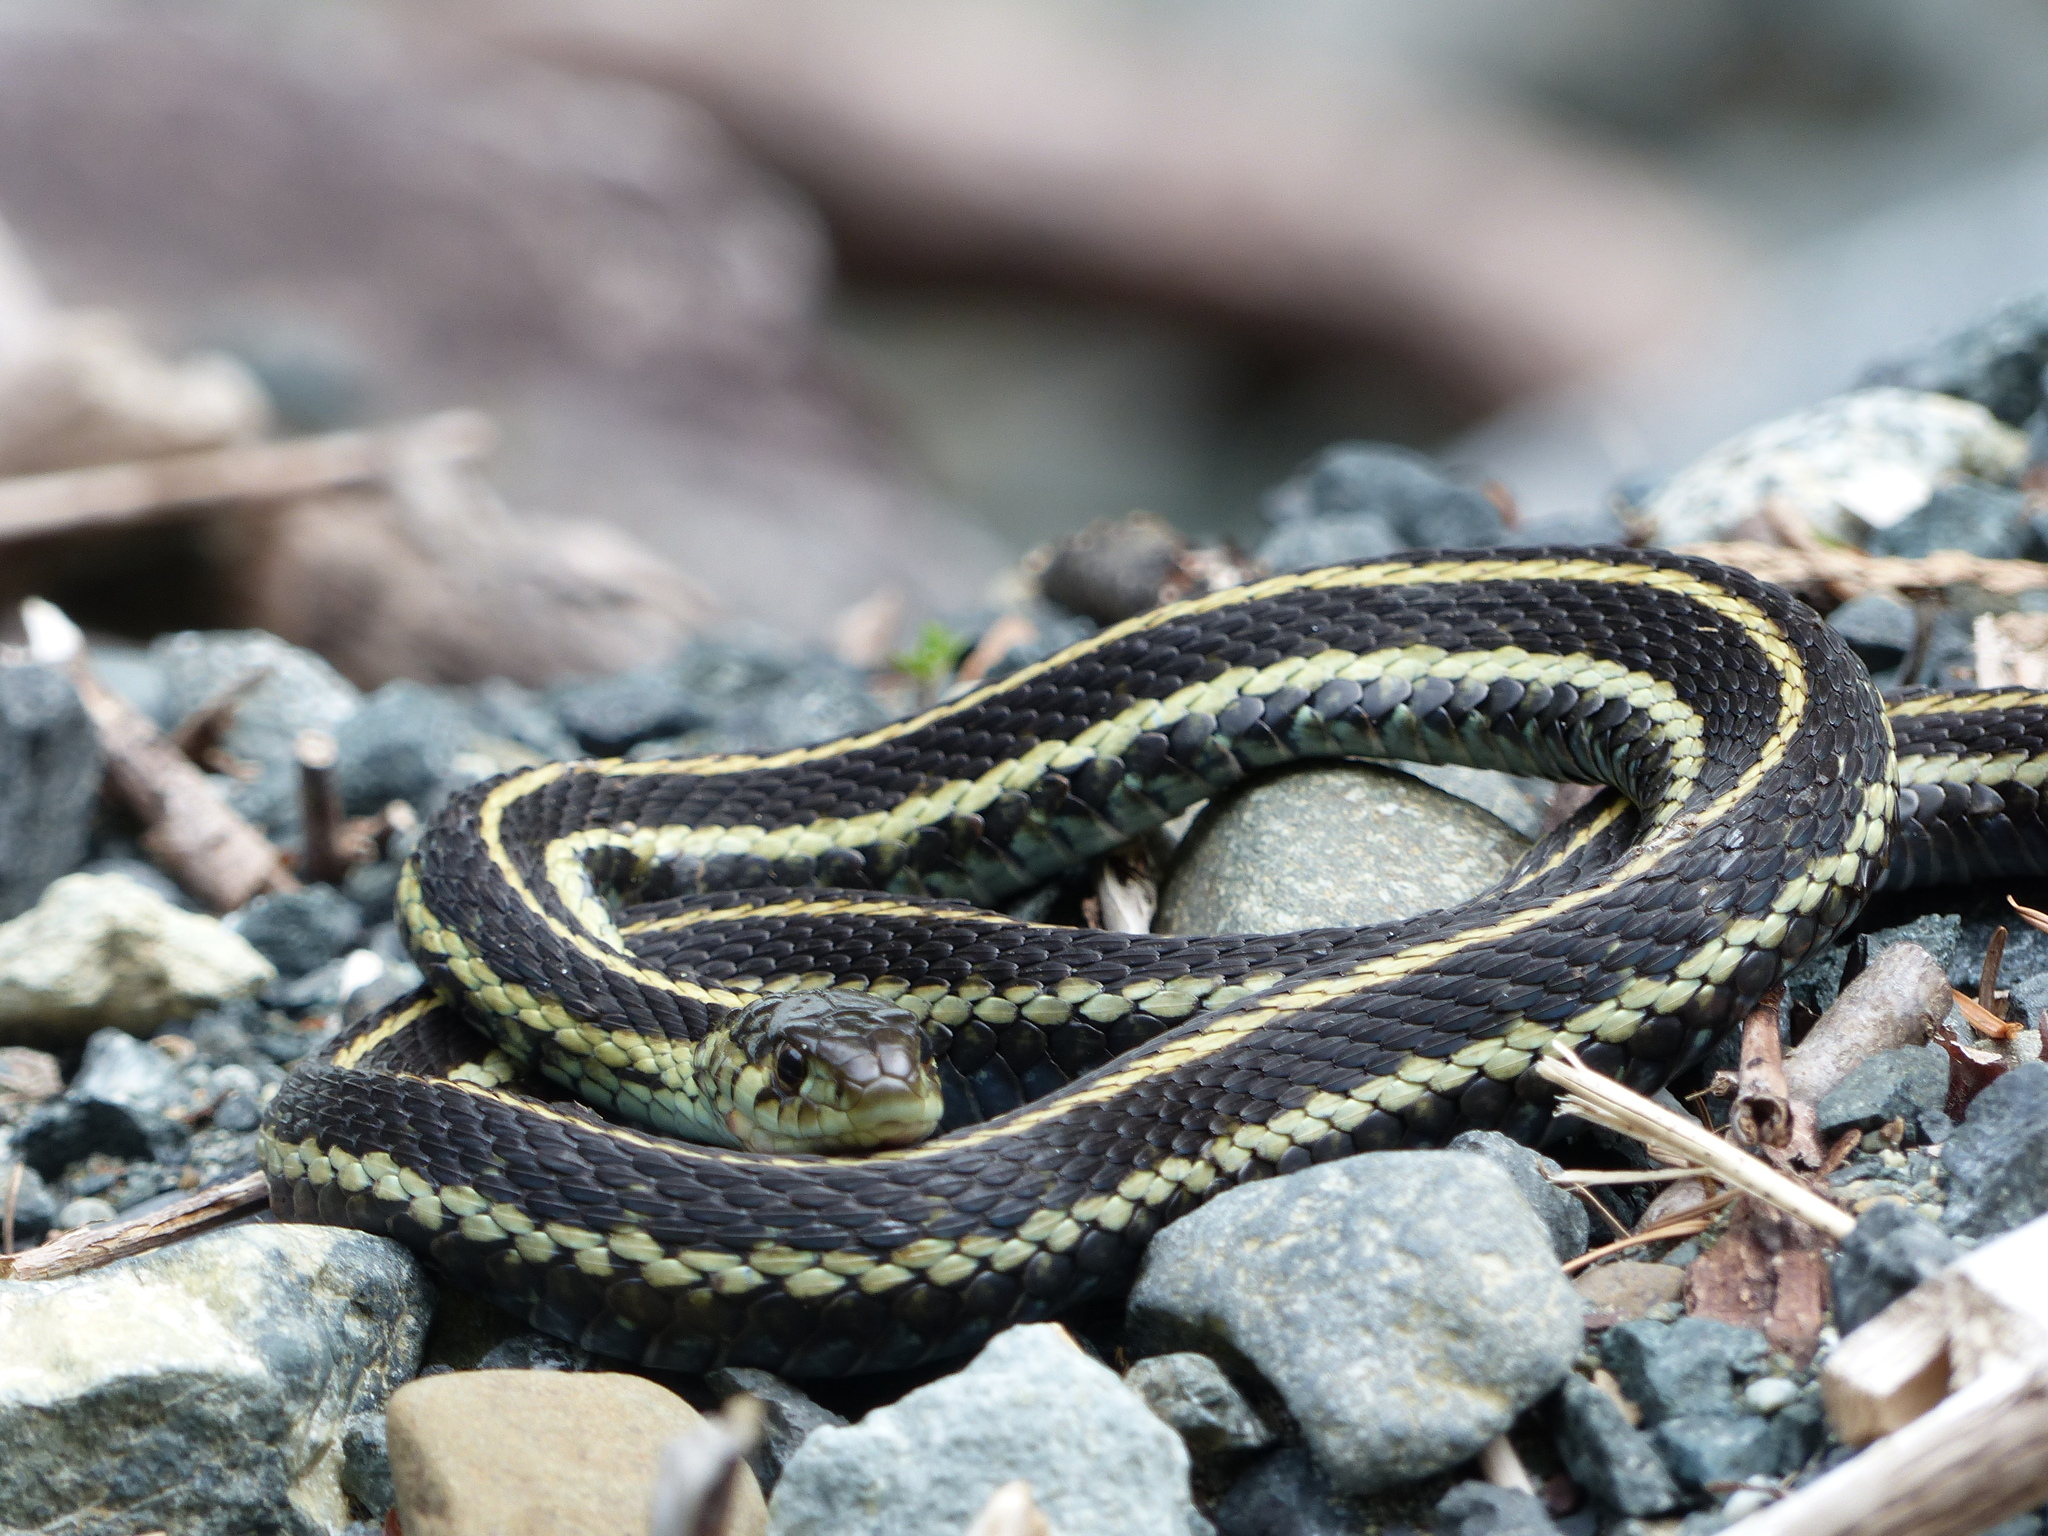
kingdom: Animalia
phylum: Chordata
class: Squamata
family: Colubridae
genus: Thamnophis
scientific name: Thamnophis sirtalis
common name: Common garter snake
